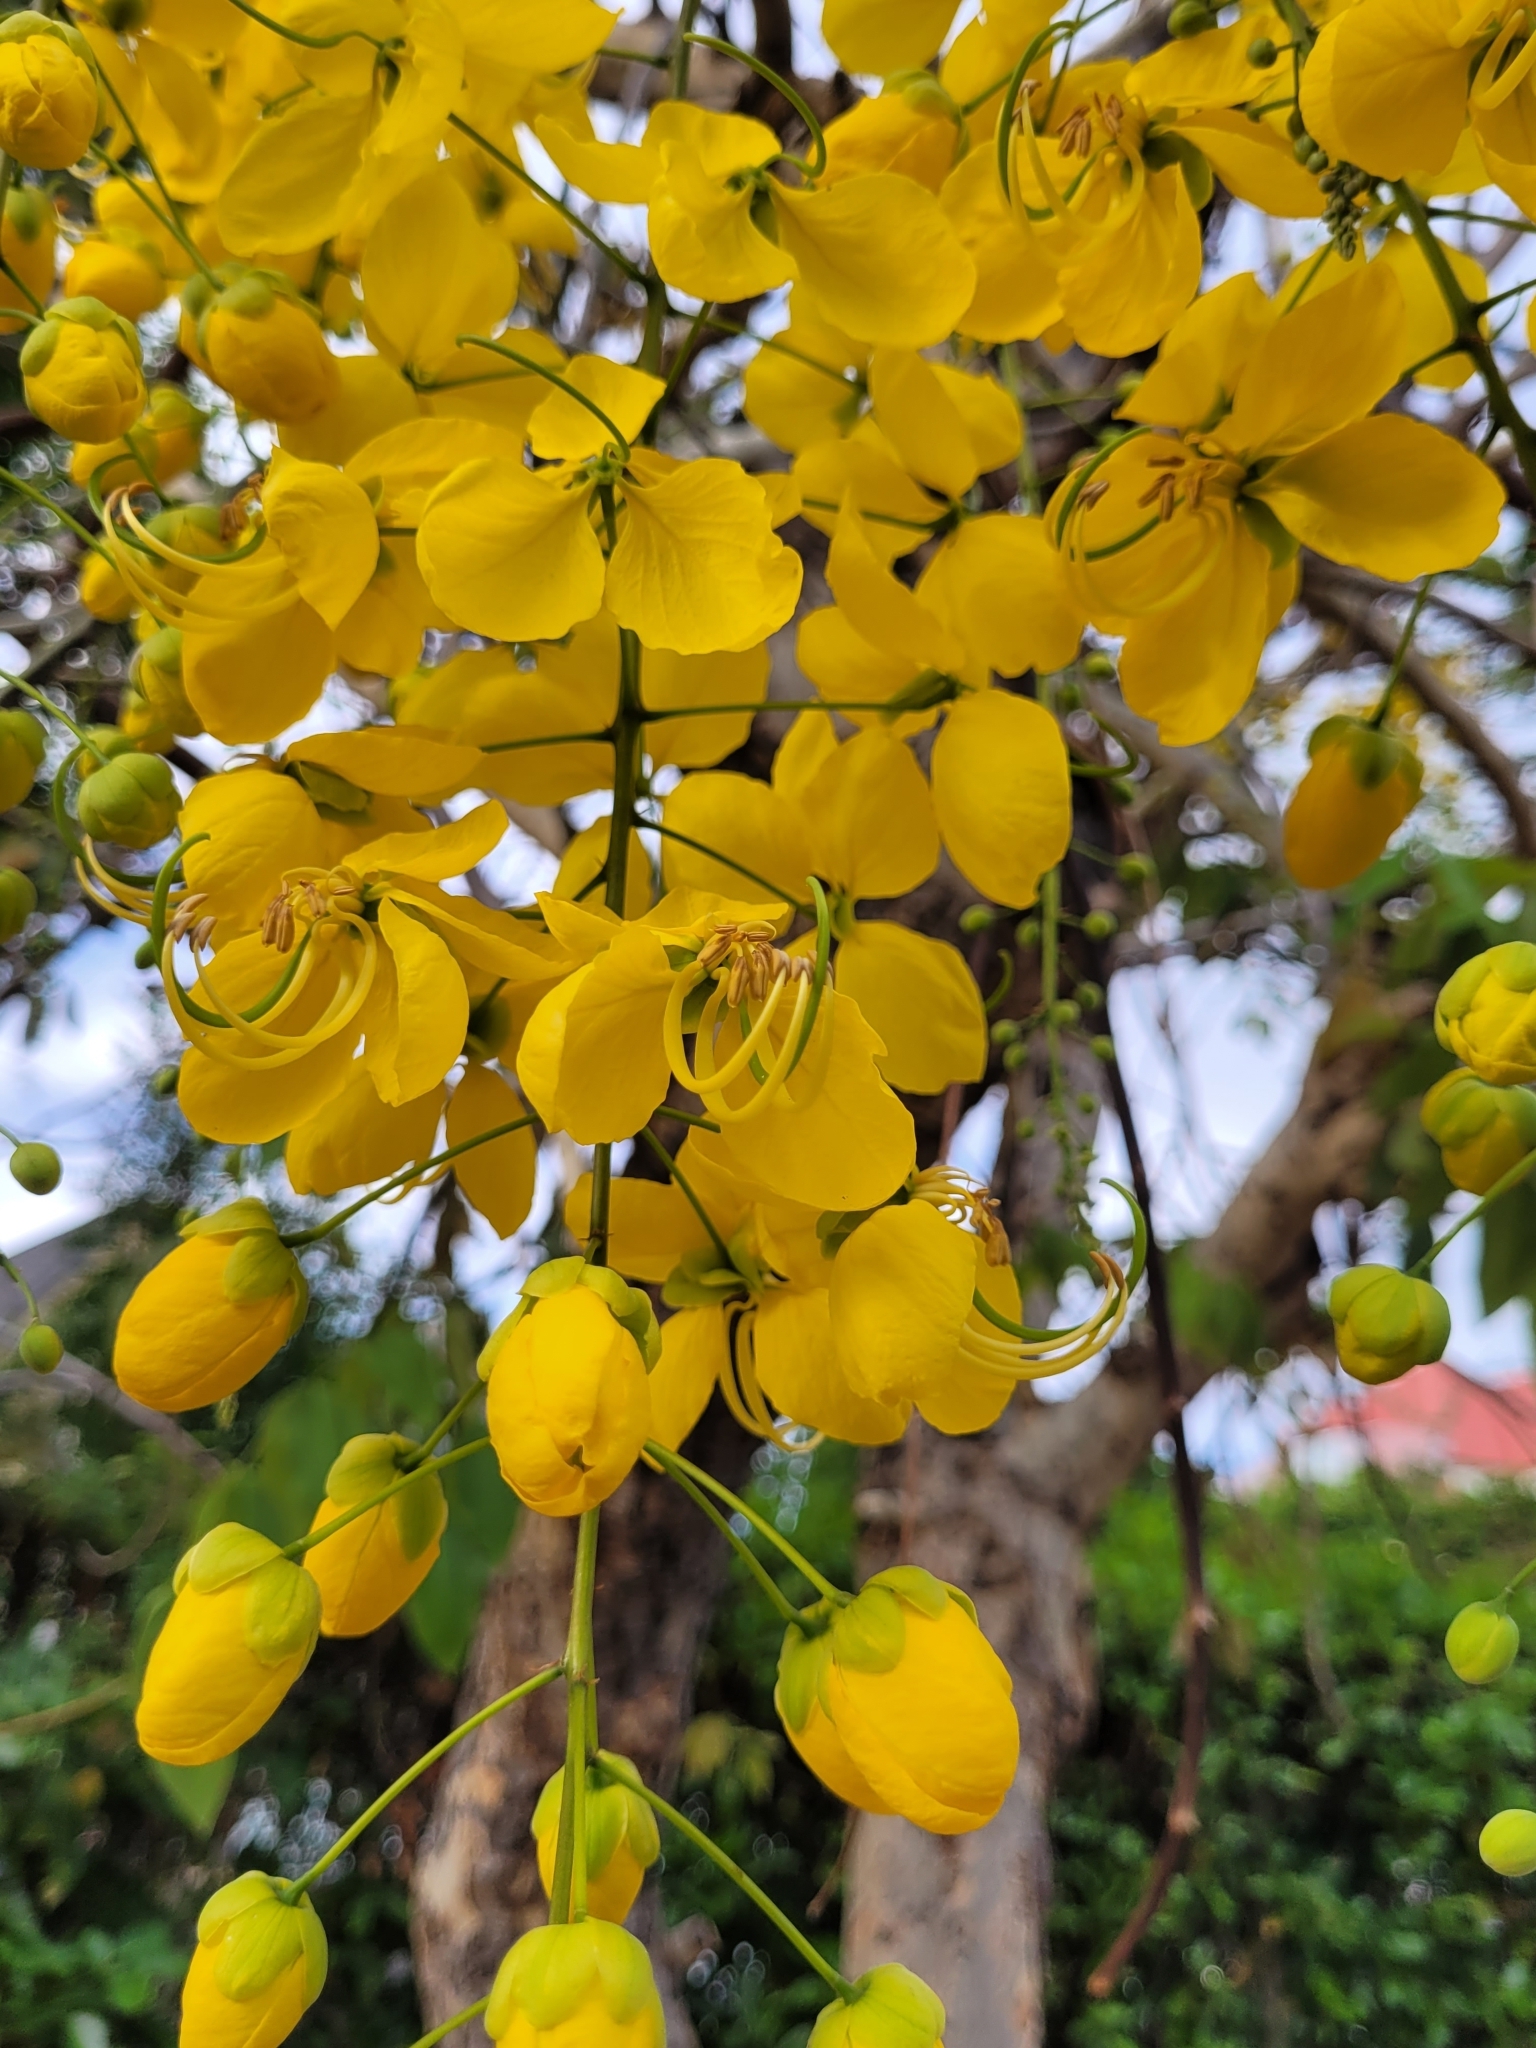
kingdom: Plantae
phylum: Tracheophyta
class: Magnoliopsida
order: Fabales
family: Fabaceae
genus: Cassia
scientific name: Cassia fistula
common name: Golden shower
